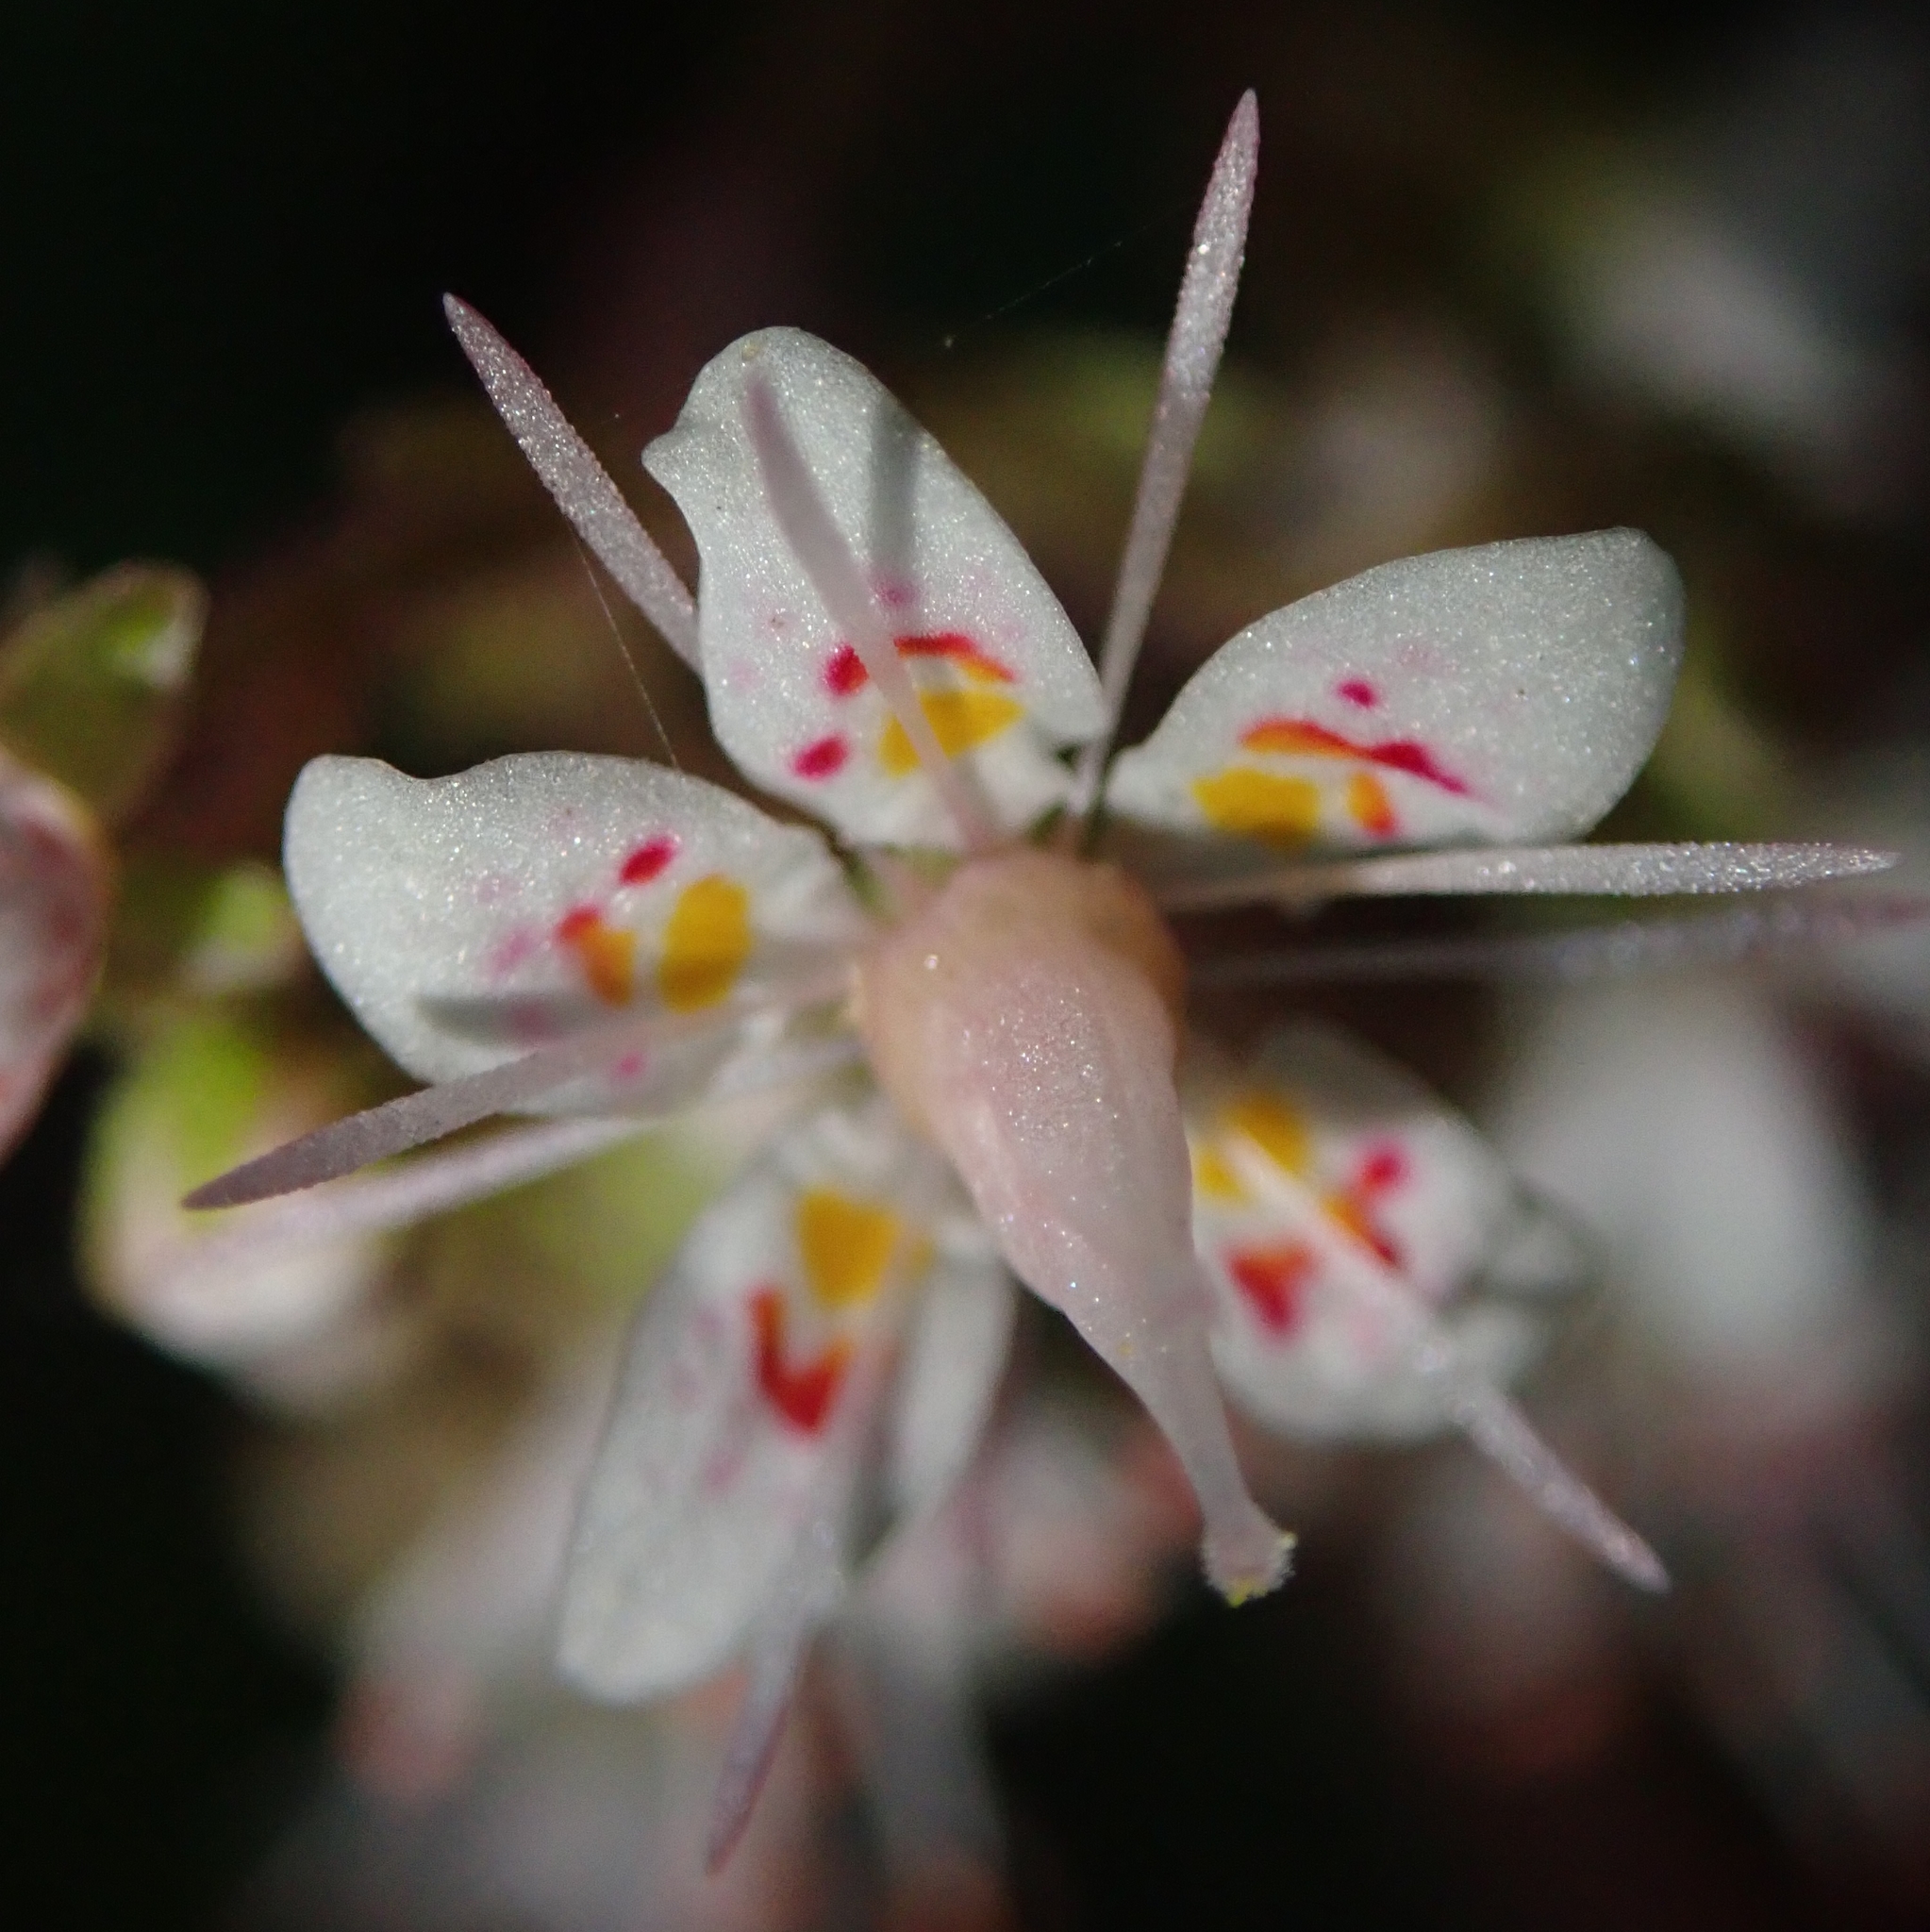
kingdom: Plantae
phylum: Tracheophyta
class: Magnoliopsida
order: Saxifragales
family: Saxifragaceae
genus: Saxifraga
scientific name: Saxifraga umbrosa
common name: Pyrenean saxifrage
